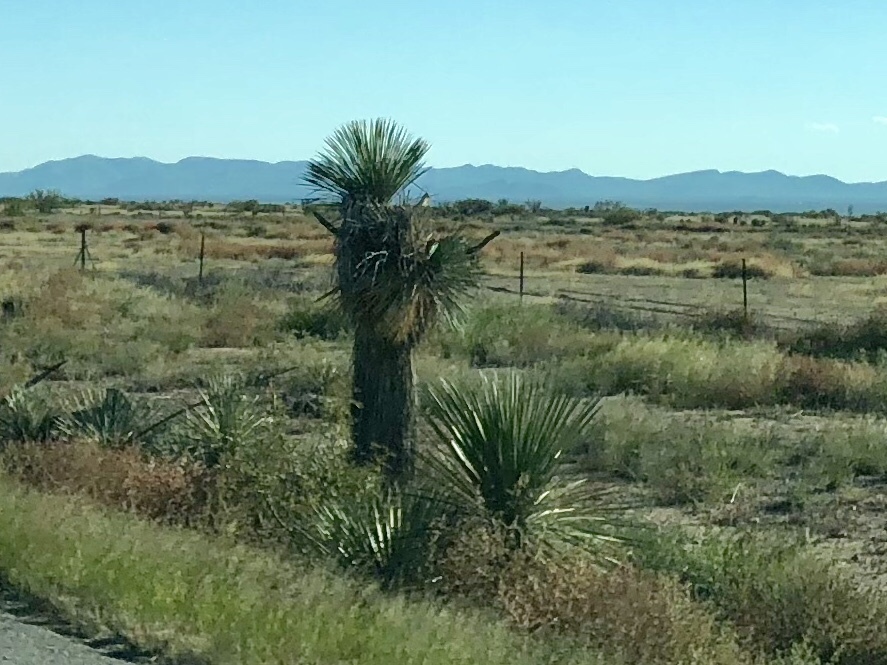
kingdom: Plantae
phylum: Tracheophyta
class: Liliopsida
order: Asparagales
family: Asparagaceae
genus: Yucca
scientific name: Yucca elata
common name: Palmella
